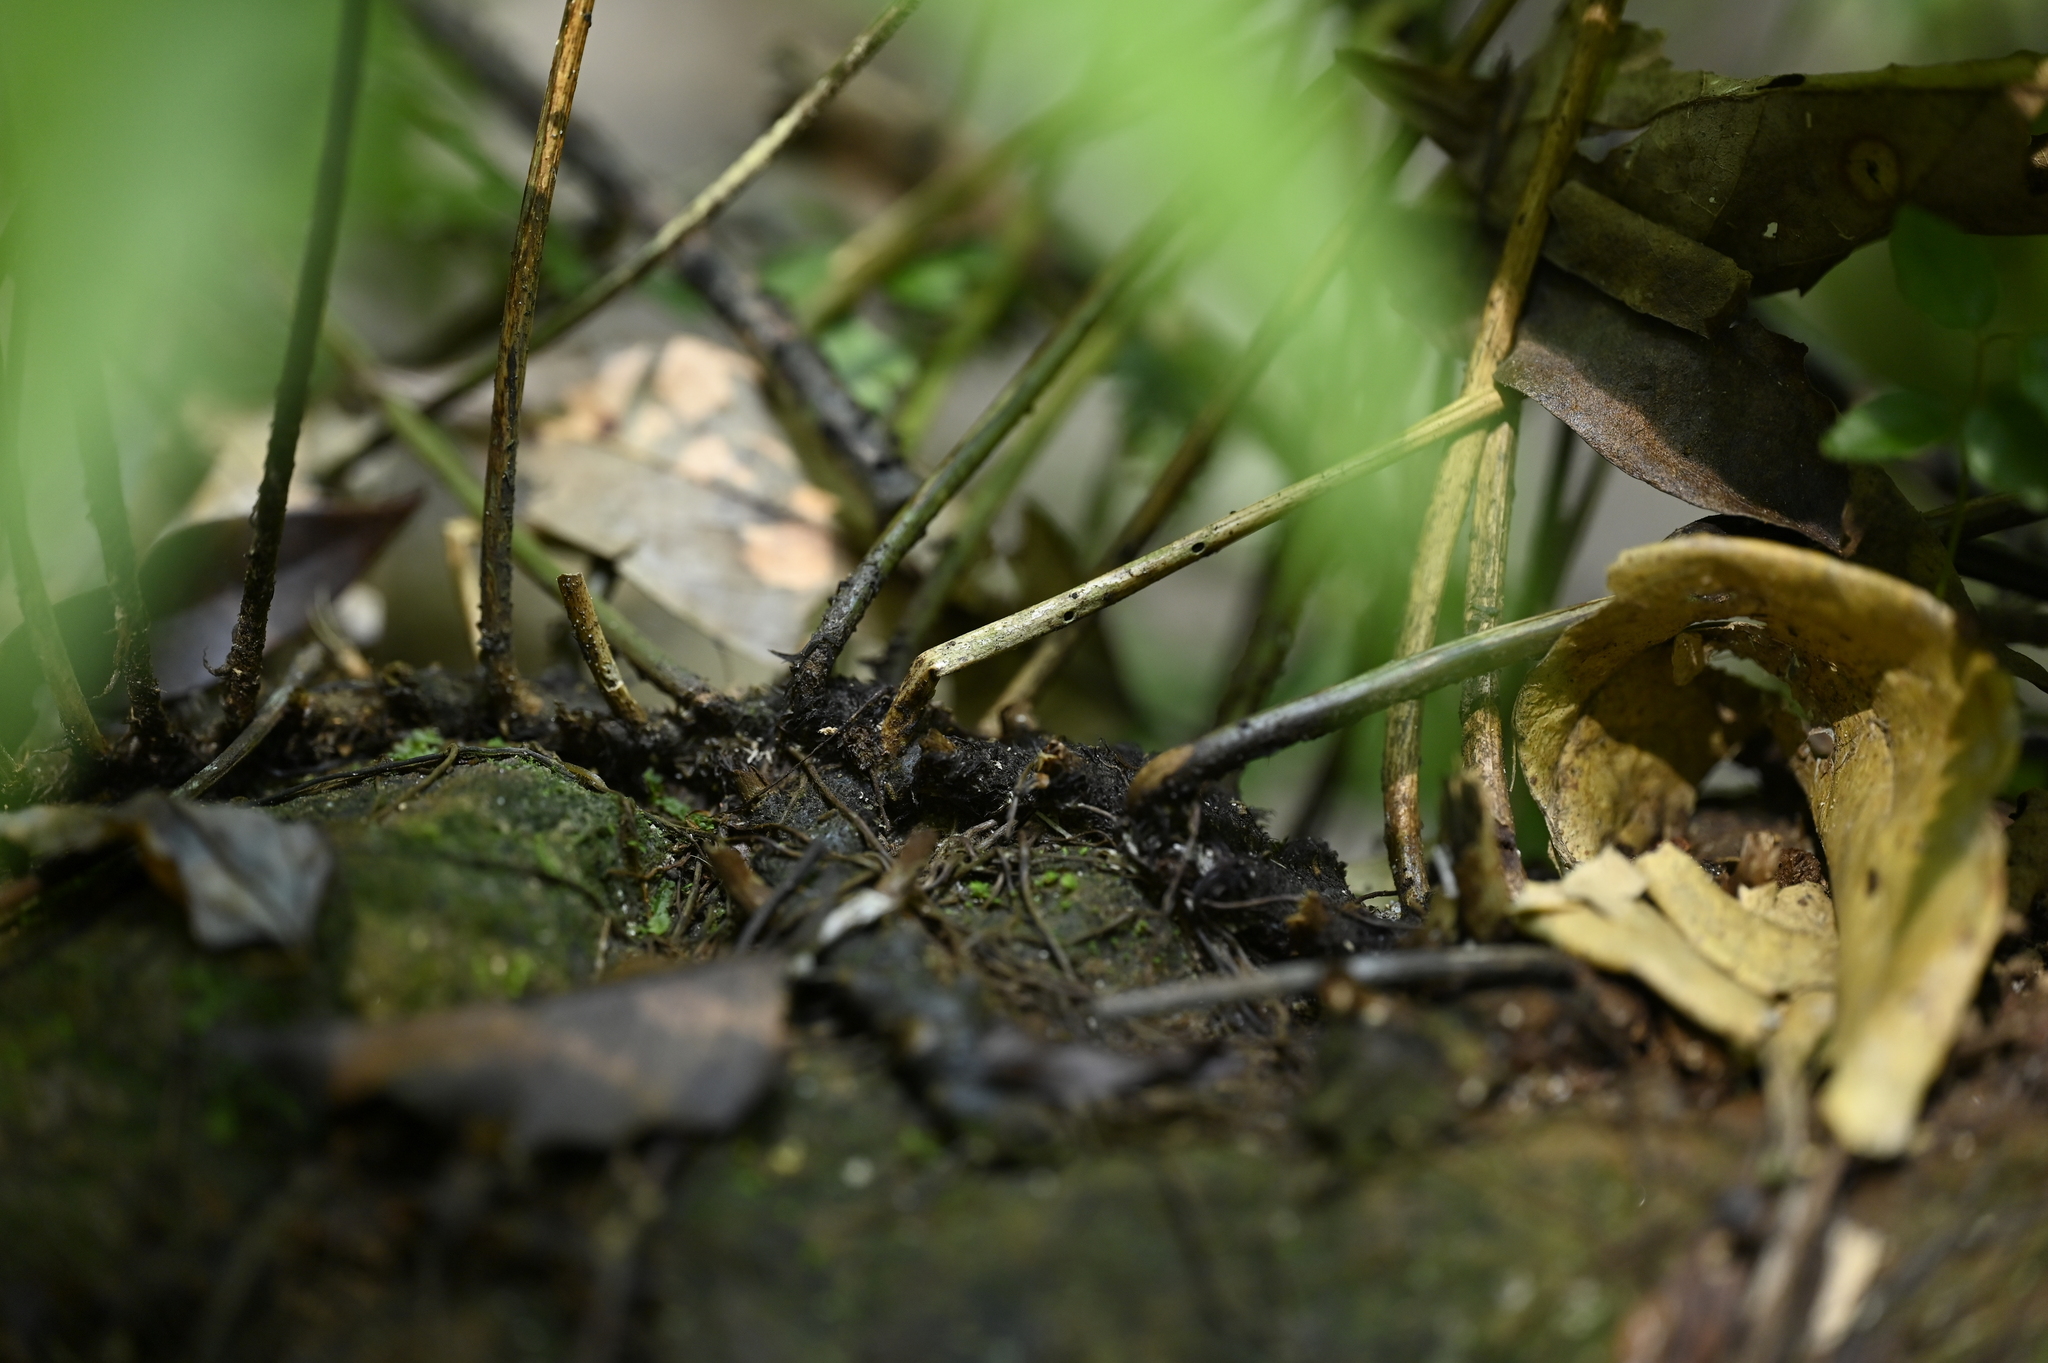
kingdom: Plantae
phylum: Tracheophyta
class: Polypodiopsida
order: Polypodiales
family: Dryopteridaceae
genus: Bolbitis
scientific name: Bolbitis lianhuachihensis
